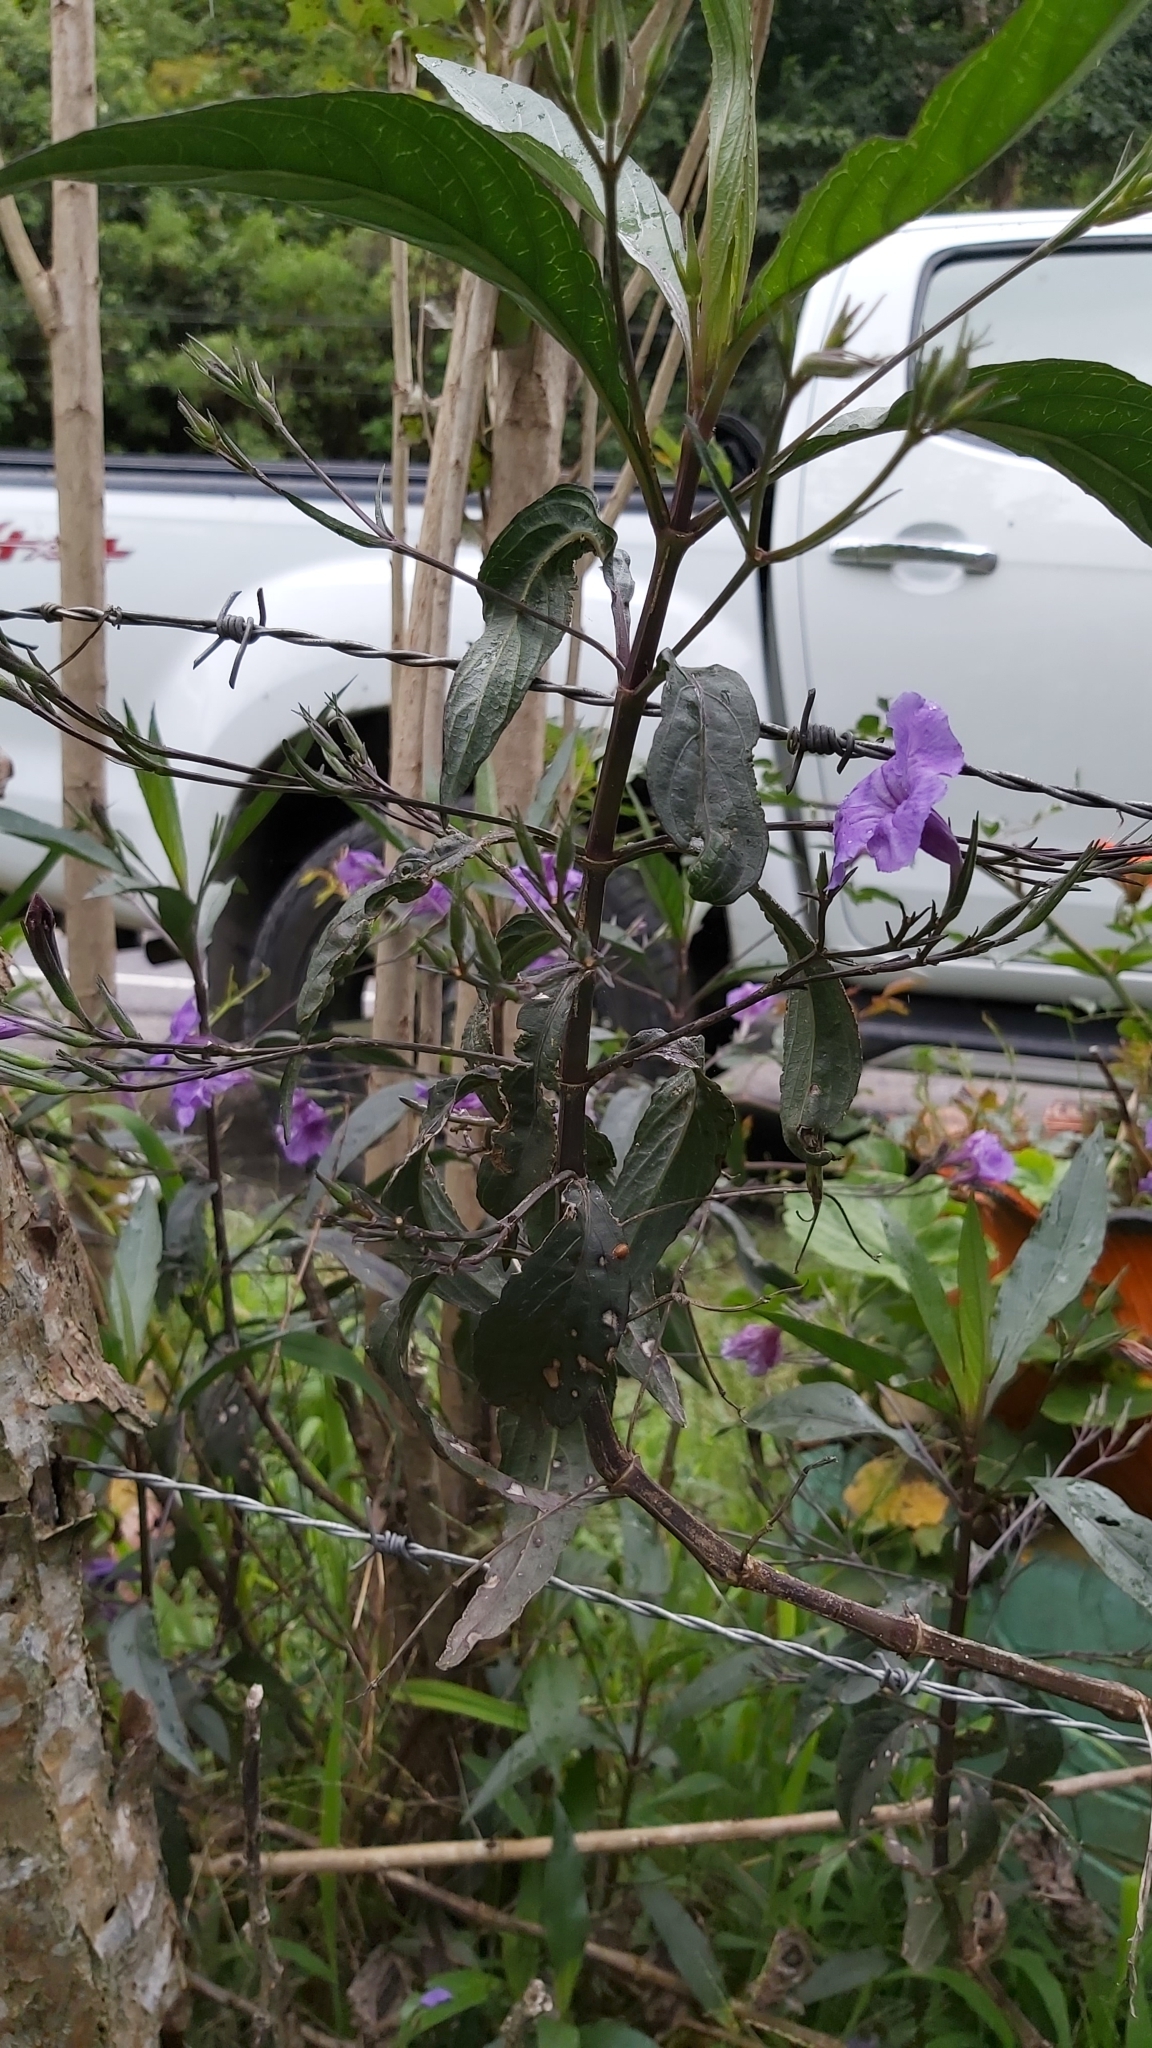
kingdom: Plantae
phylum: Tracheophyta
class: Magnoliopsida
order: Lamiales
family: Acanthaceae
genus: Ruellia
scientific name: Ruellia simplex
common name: Softseed wild petunia
